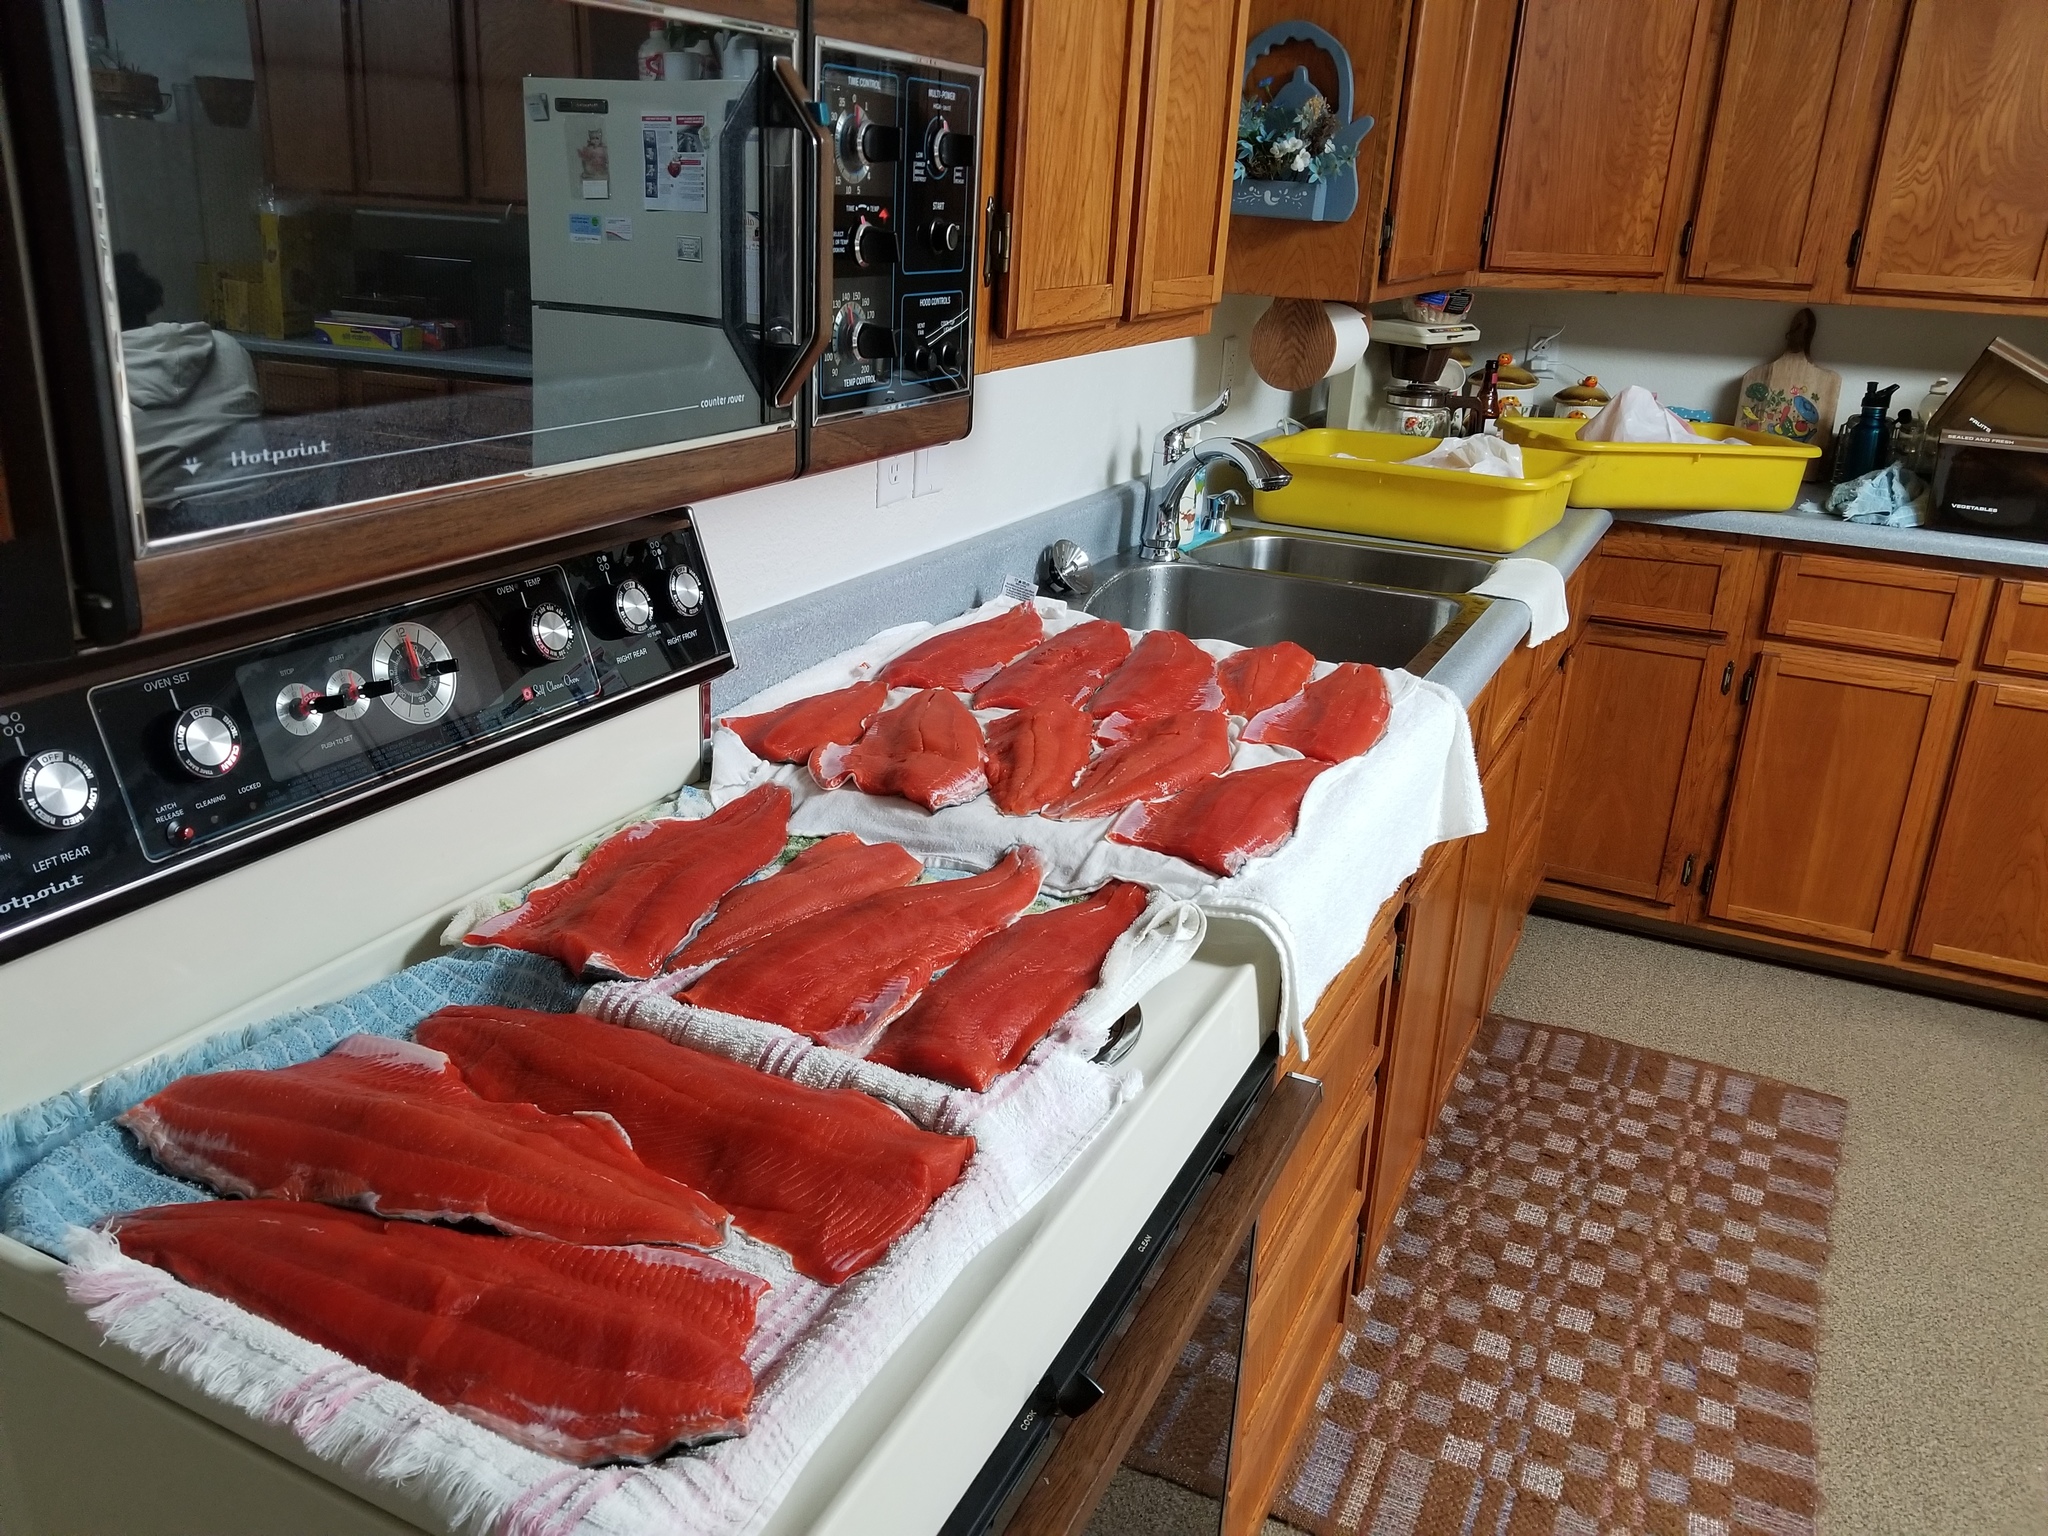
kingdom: Animalia
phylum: Chordata
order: Salmoniformes
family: Salmonidae
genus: Oncorhynchus
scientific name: Oncorhynchus nerka
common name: Sockeye salmon
